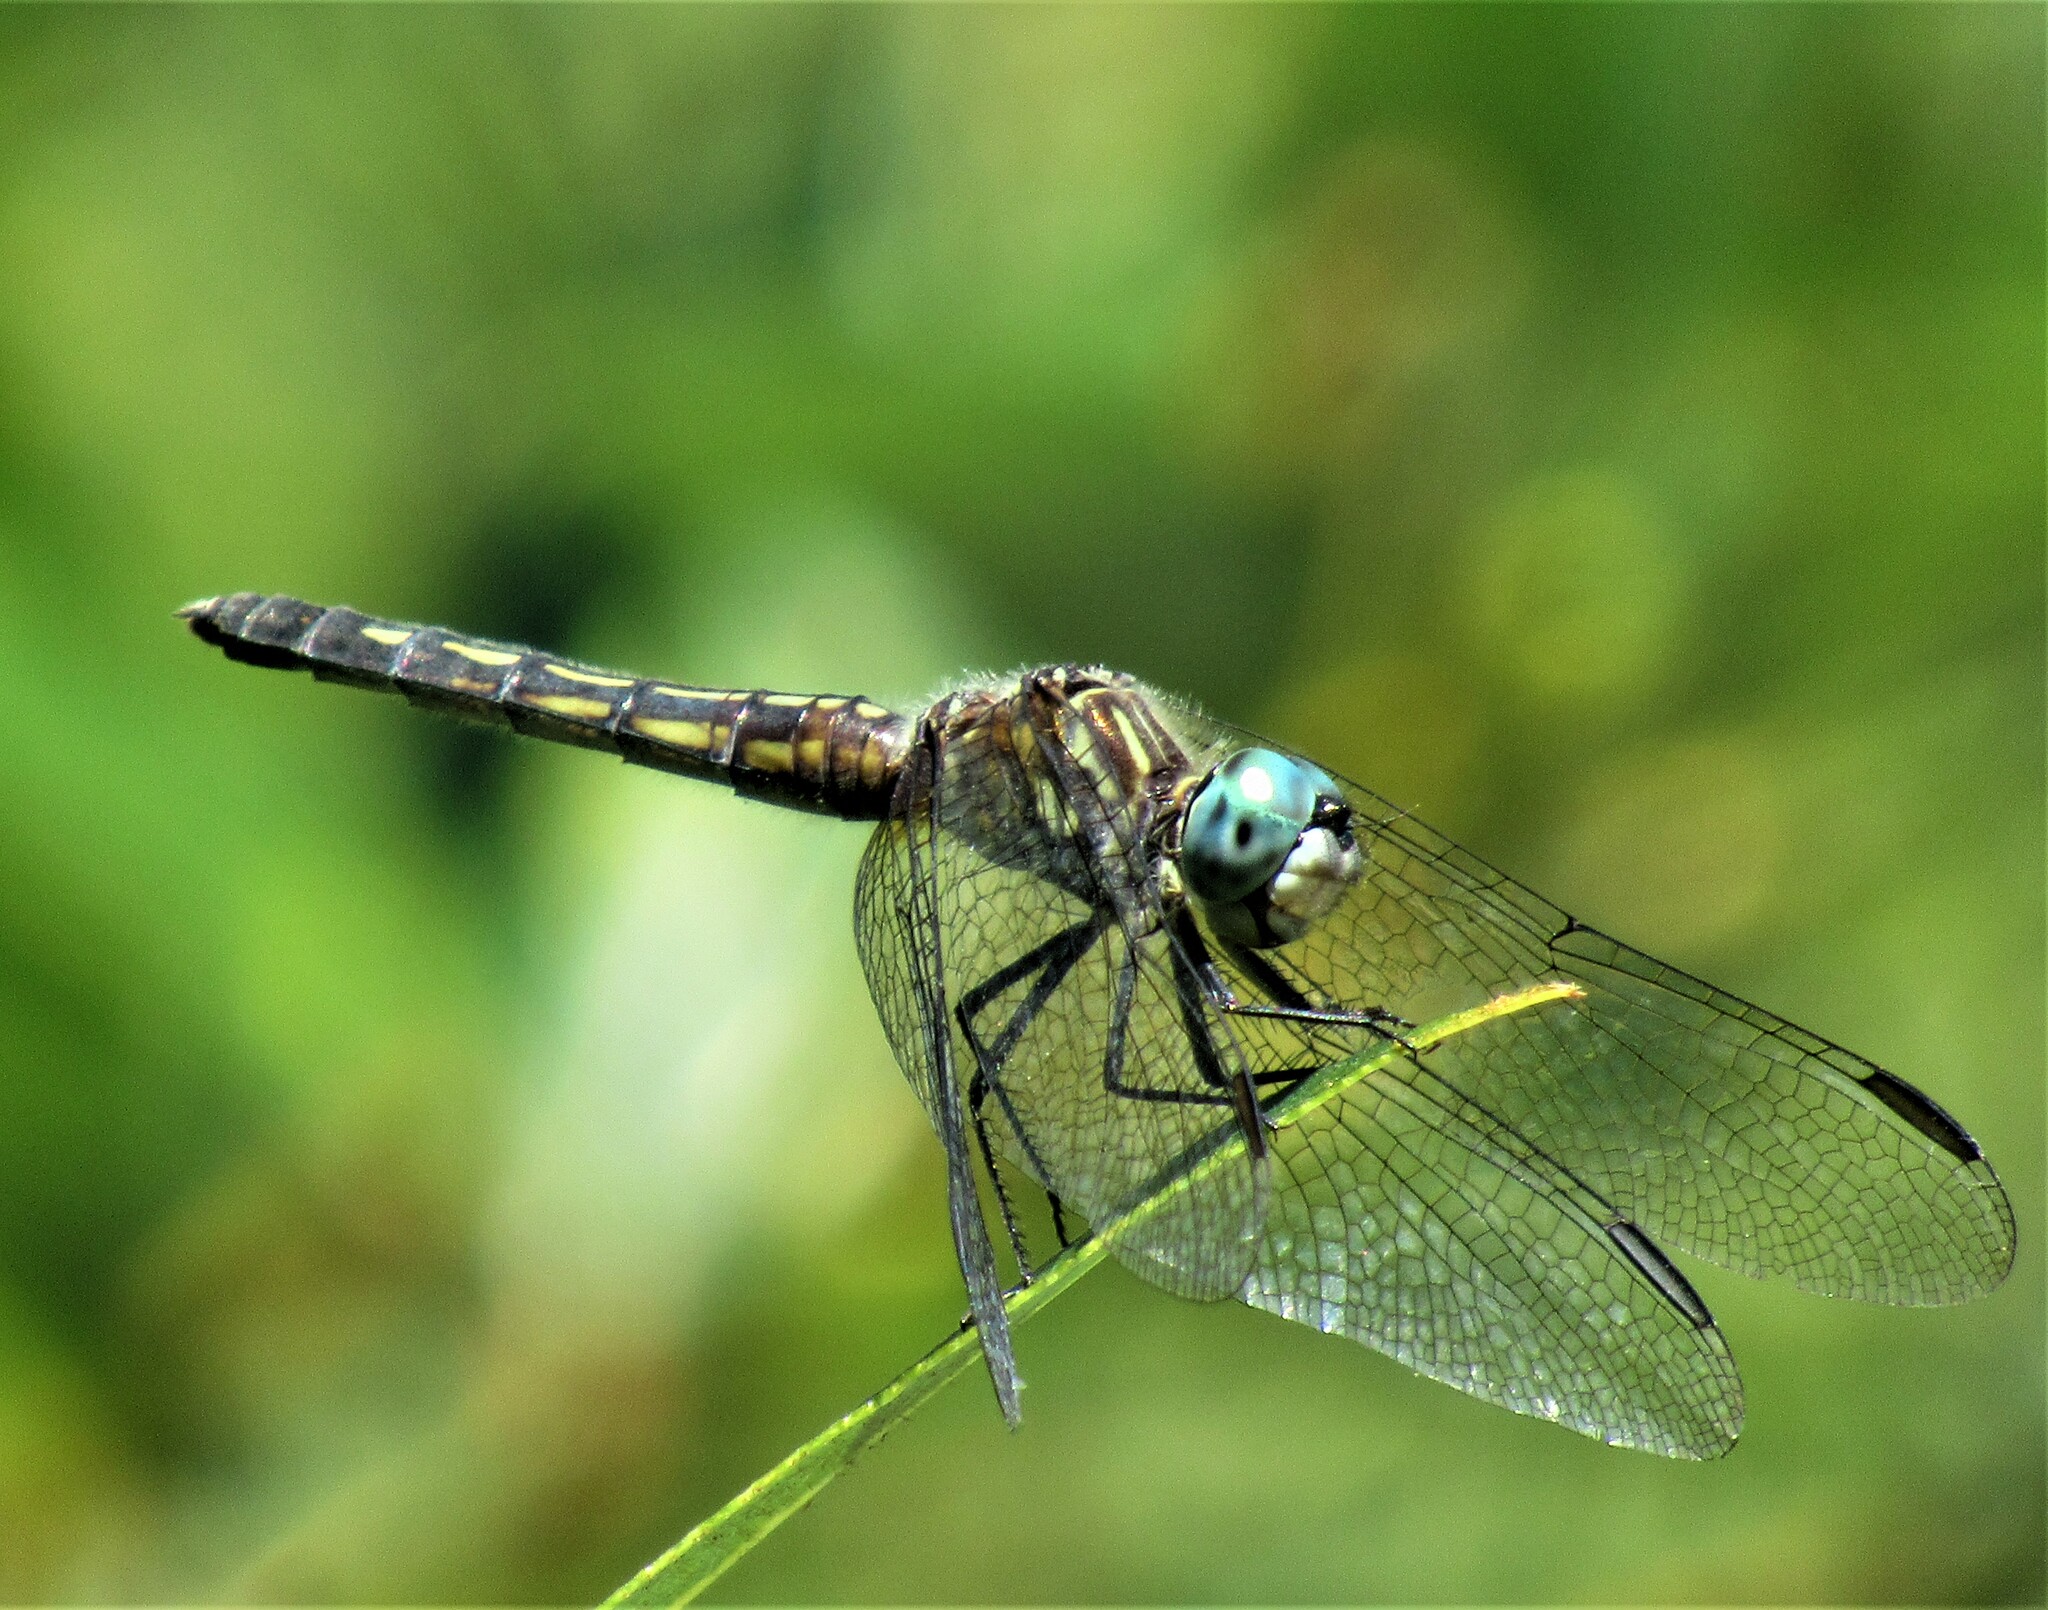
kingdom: Animalia
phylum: Arthropoda
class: Insecta
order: Odonata
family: Libellulidae
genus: Pachydiplax
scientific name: Pachydiplax longipennis
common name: Blue dasher
